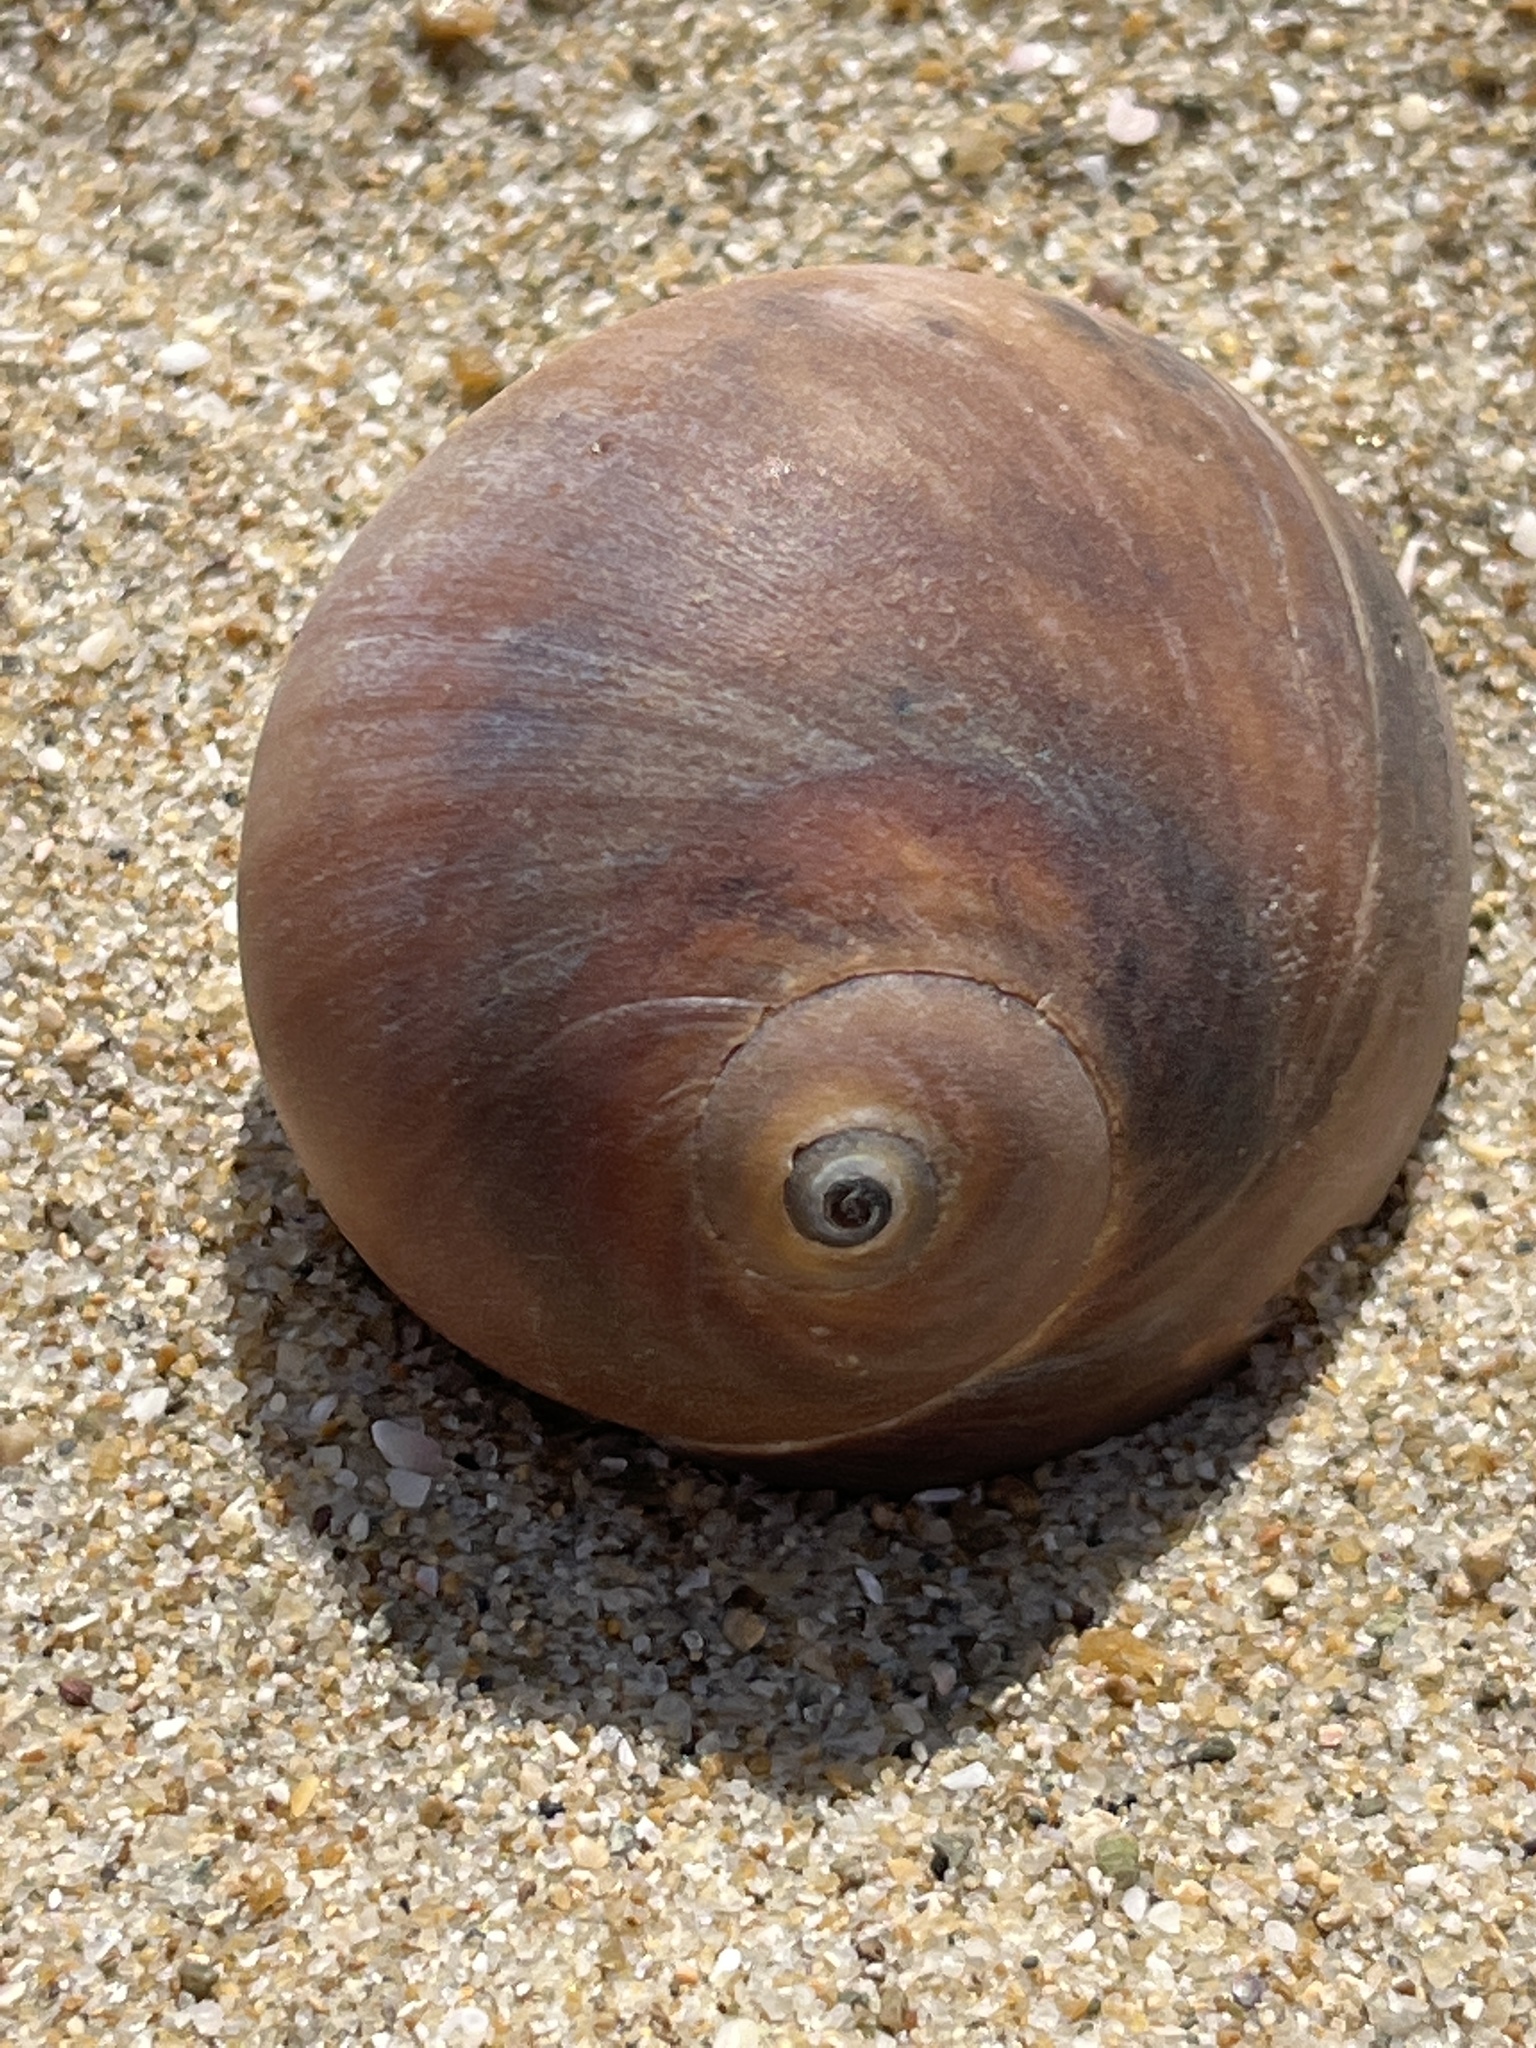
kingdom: Animalia
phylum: Mollusca
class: Gastropoda
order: Littorinimorpha
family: Naticidae
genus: Neverita
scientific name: Neverita didyma
